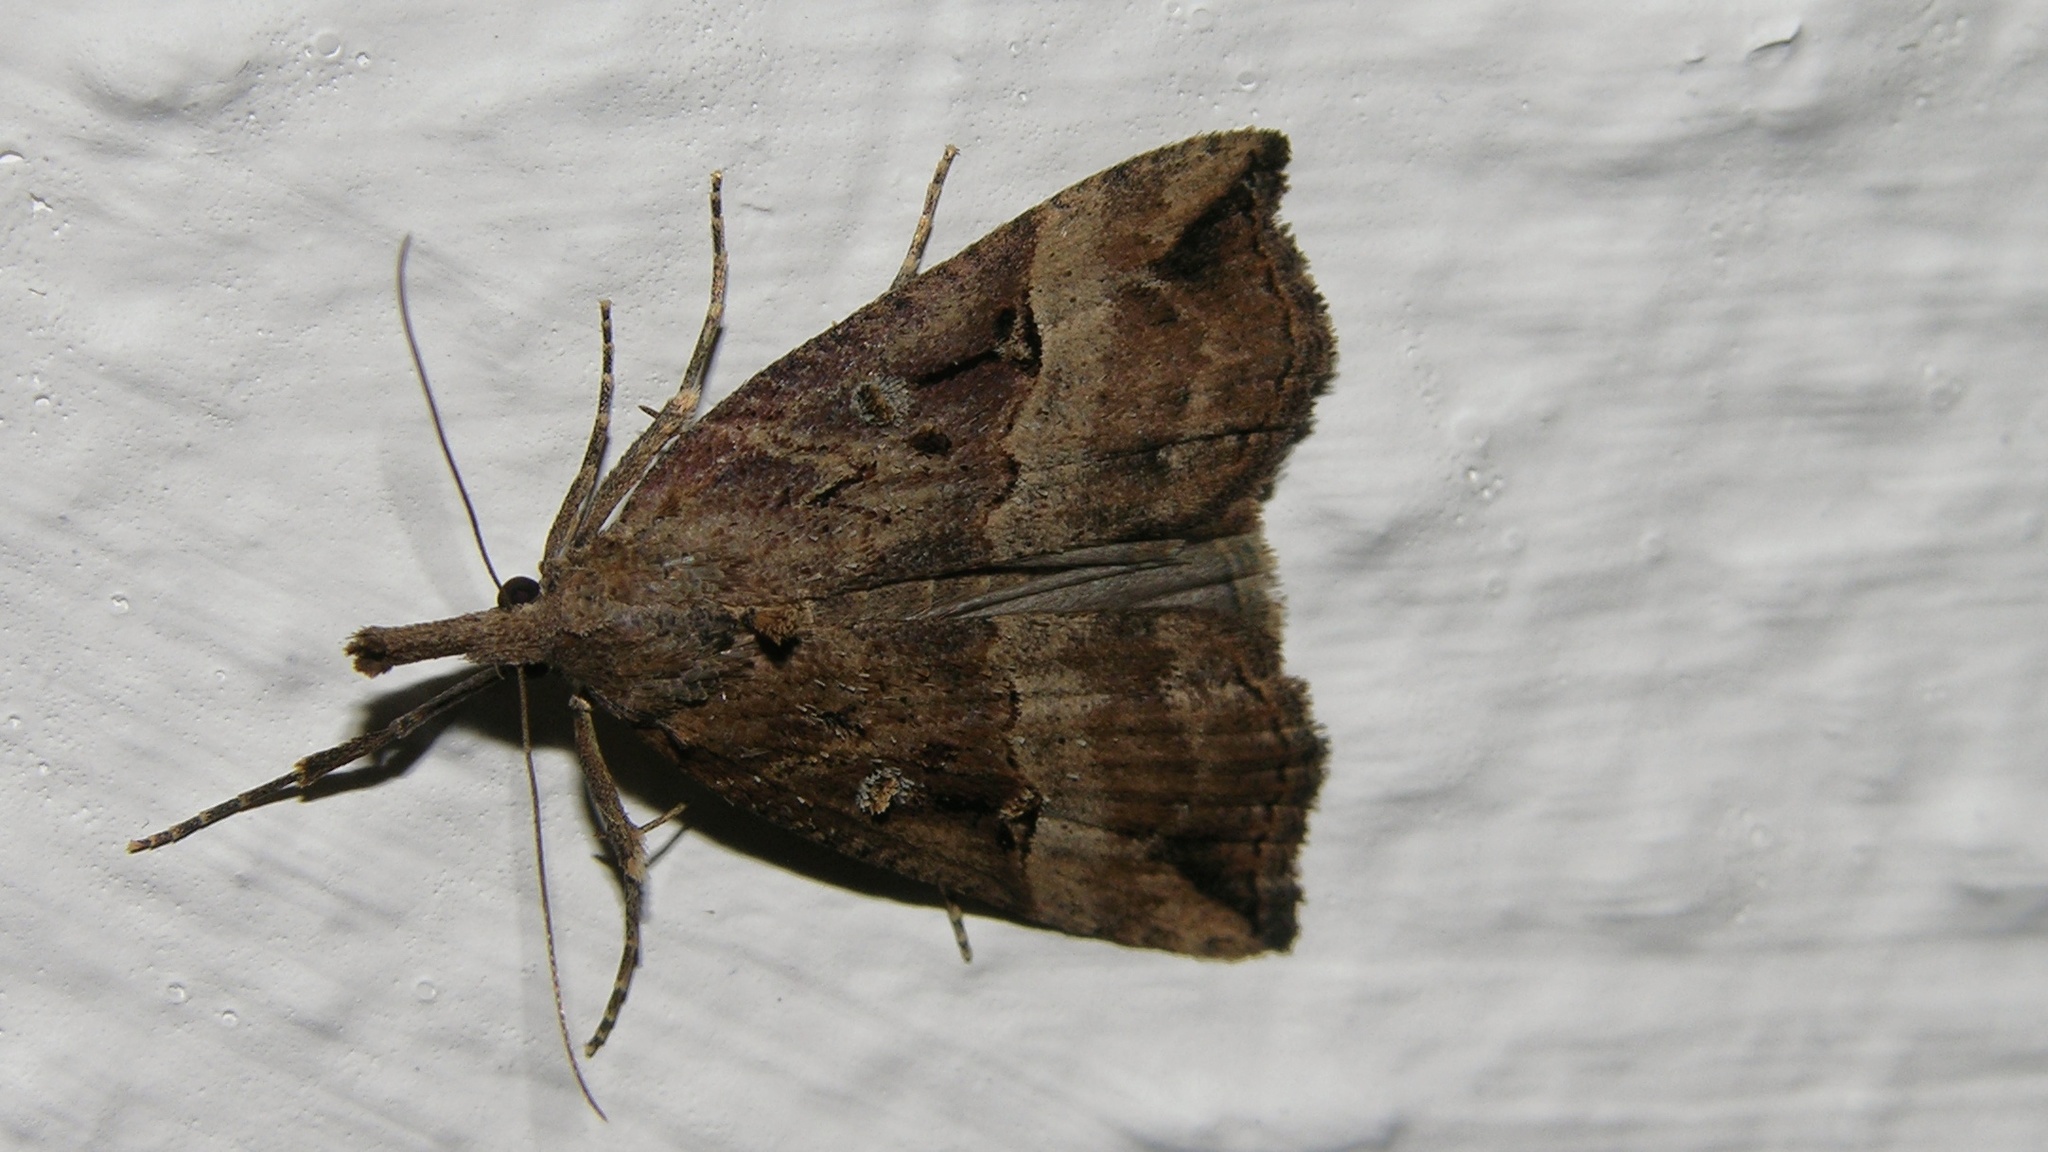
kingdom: Animalia
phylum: Arthropoda
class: Insecta
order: Lepidoptera
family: Erebidae
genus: Hypena
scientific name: Hypena rostralis
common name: Buttoned snout
